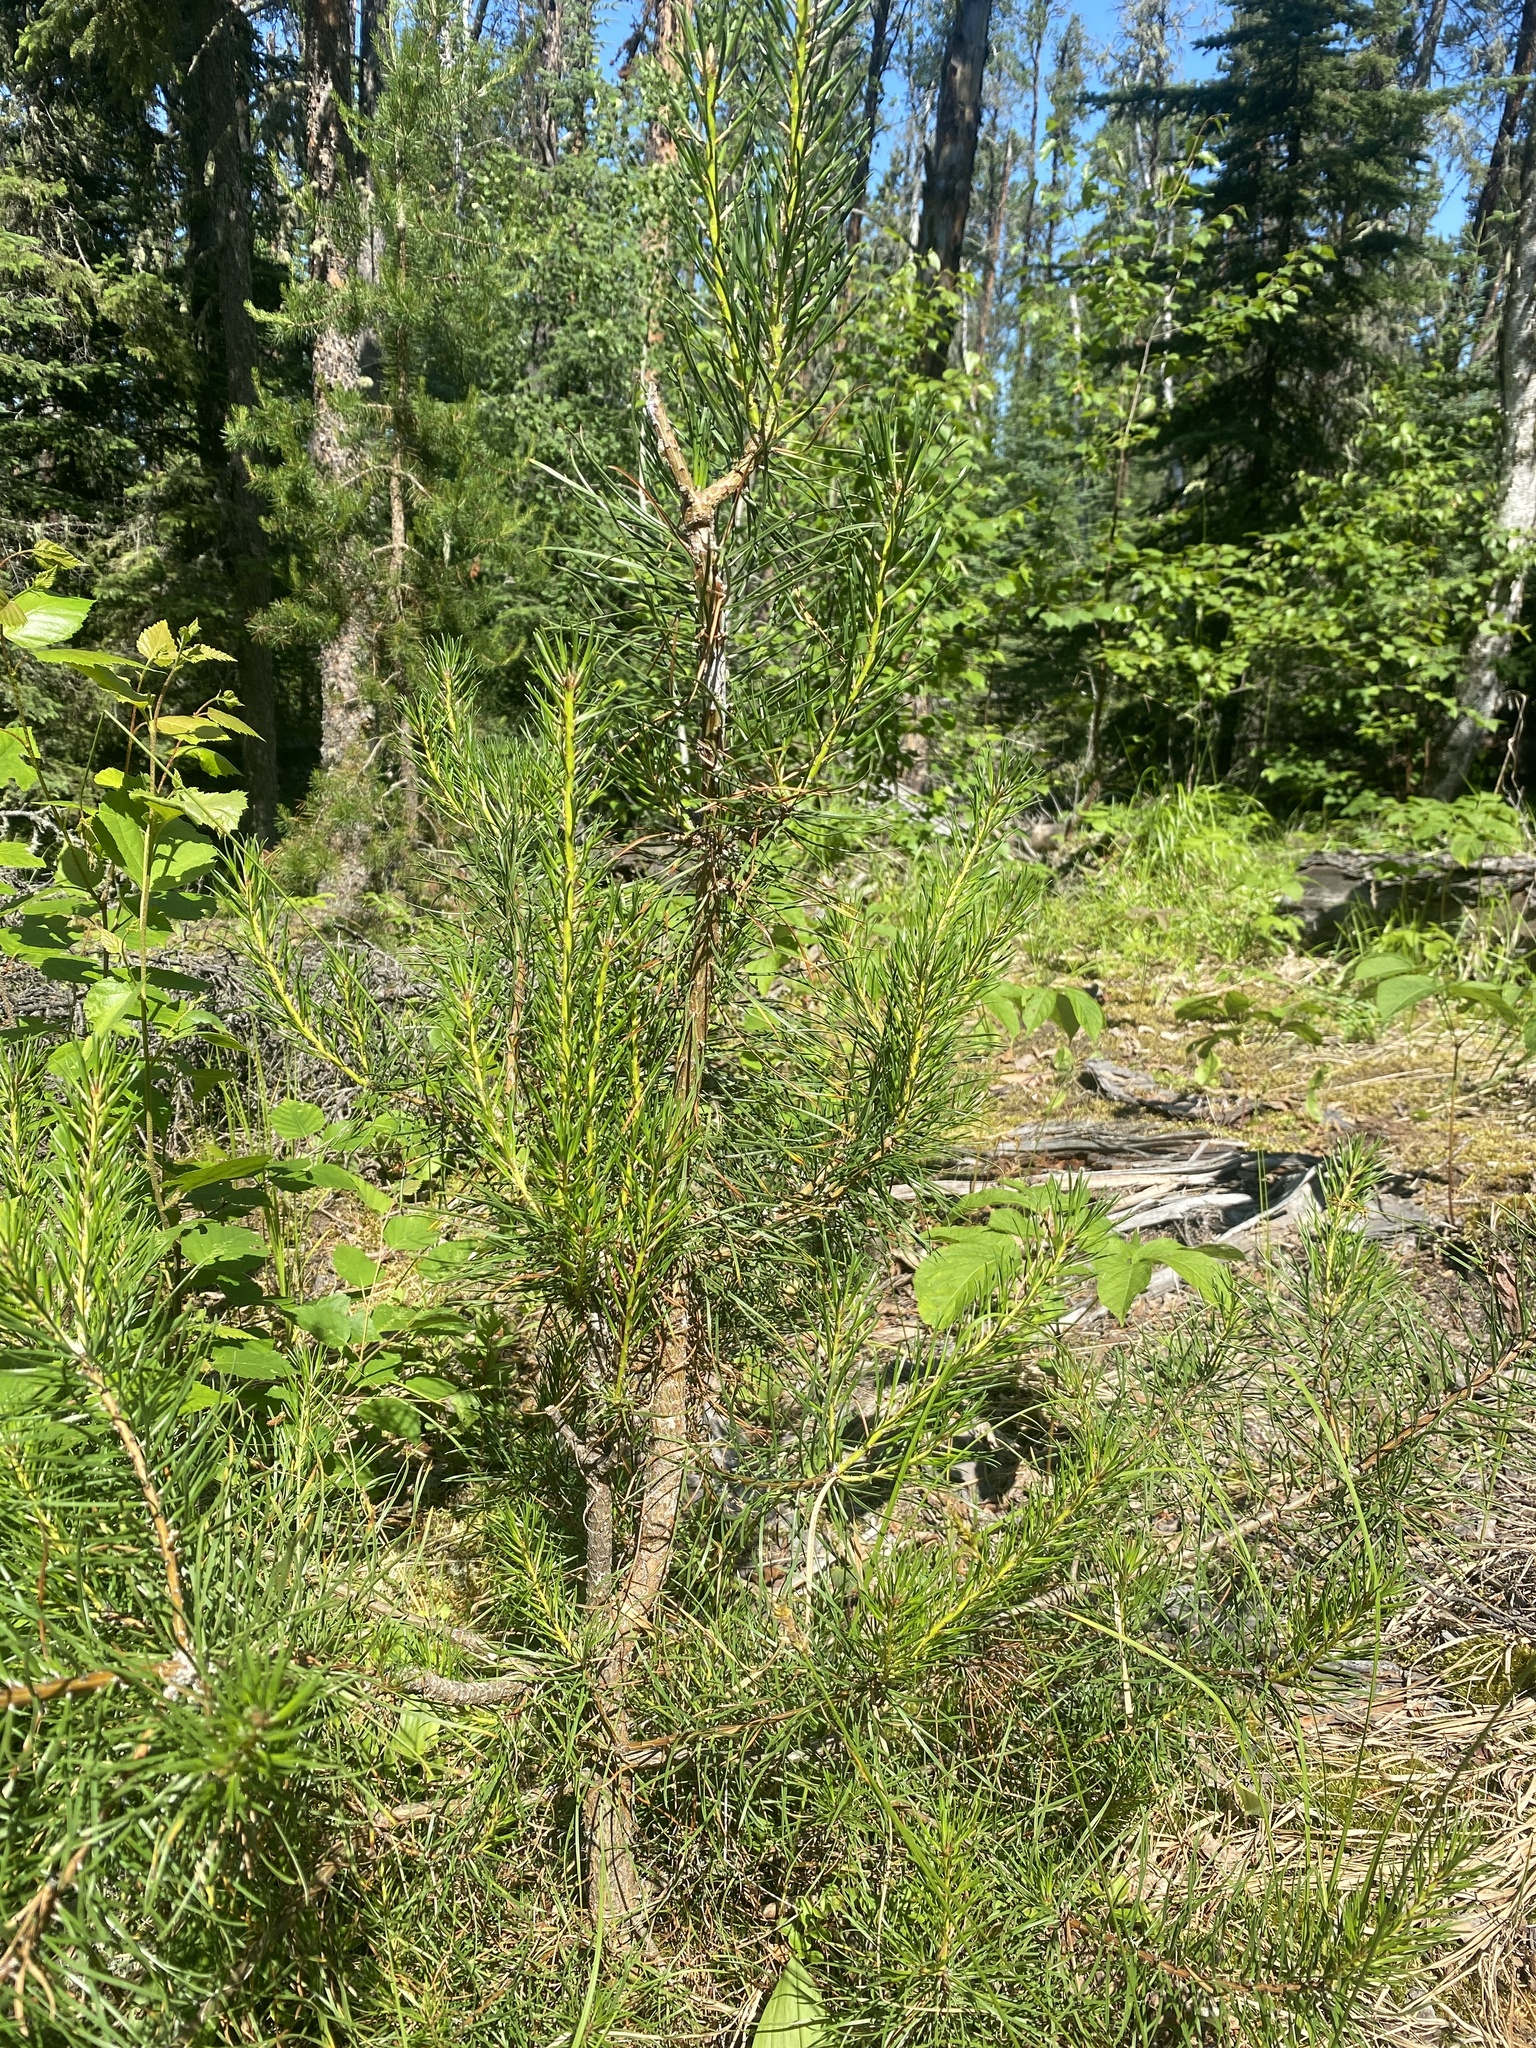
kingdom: Plantae
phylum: Tracheophyta
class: Pinopsida
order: Pinales
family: Pinaceae
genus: Pinus
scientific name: Pinus banksiana
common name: Jack pine
